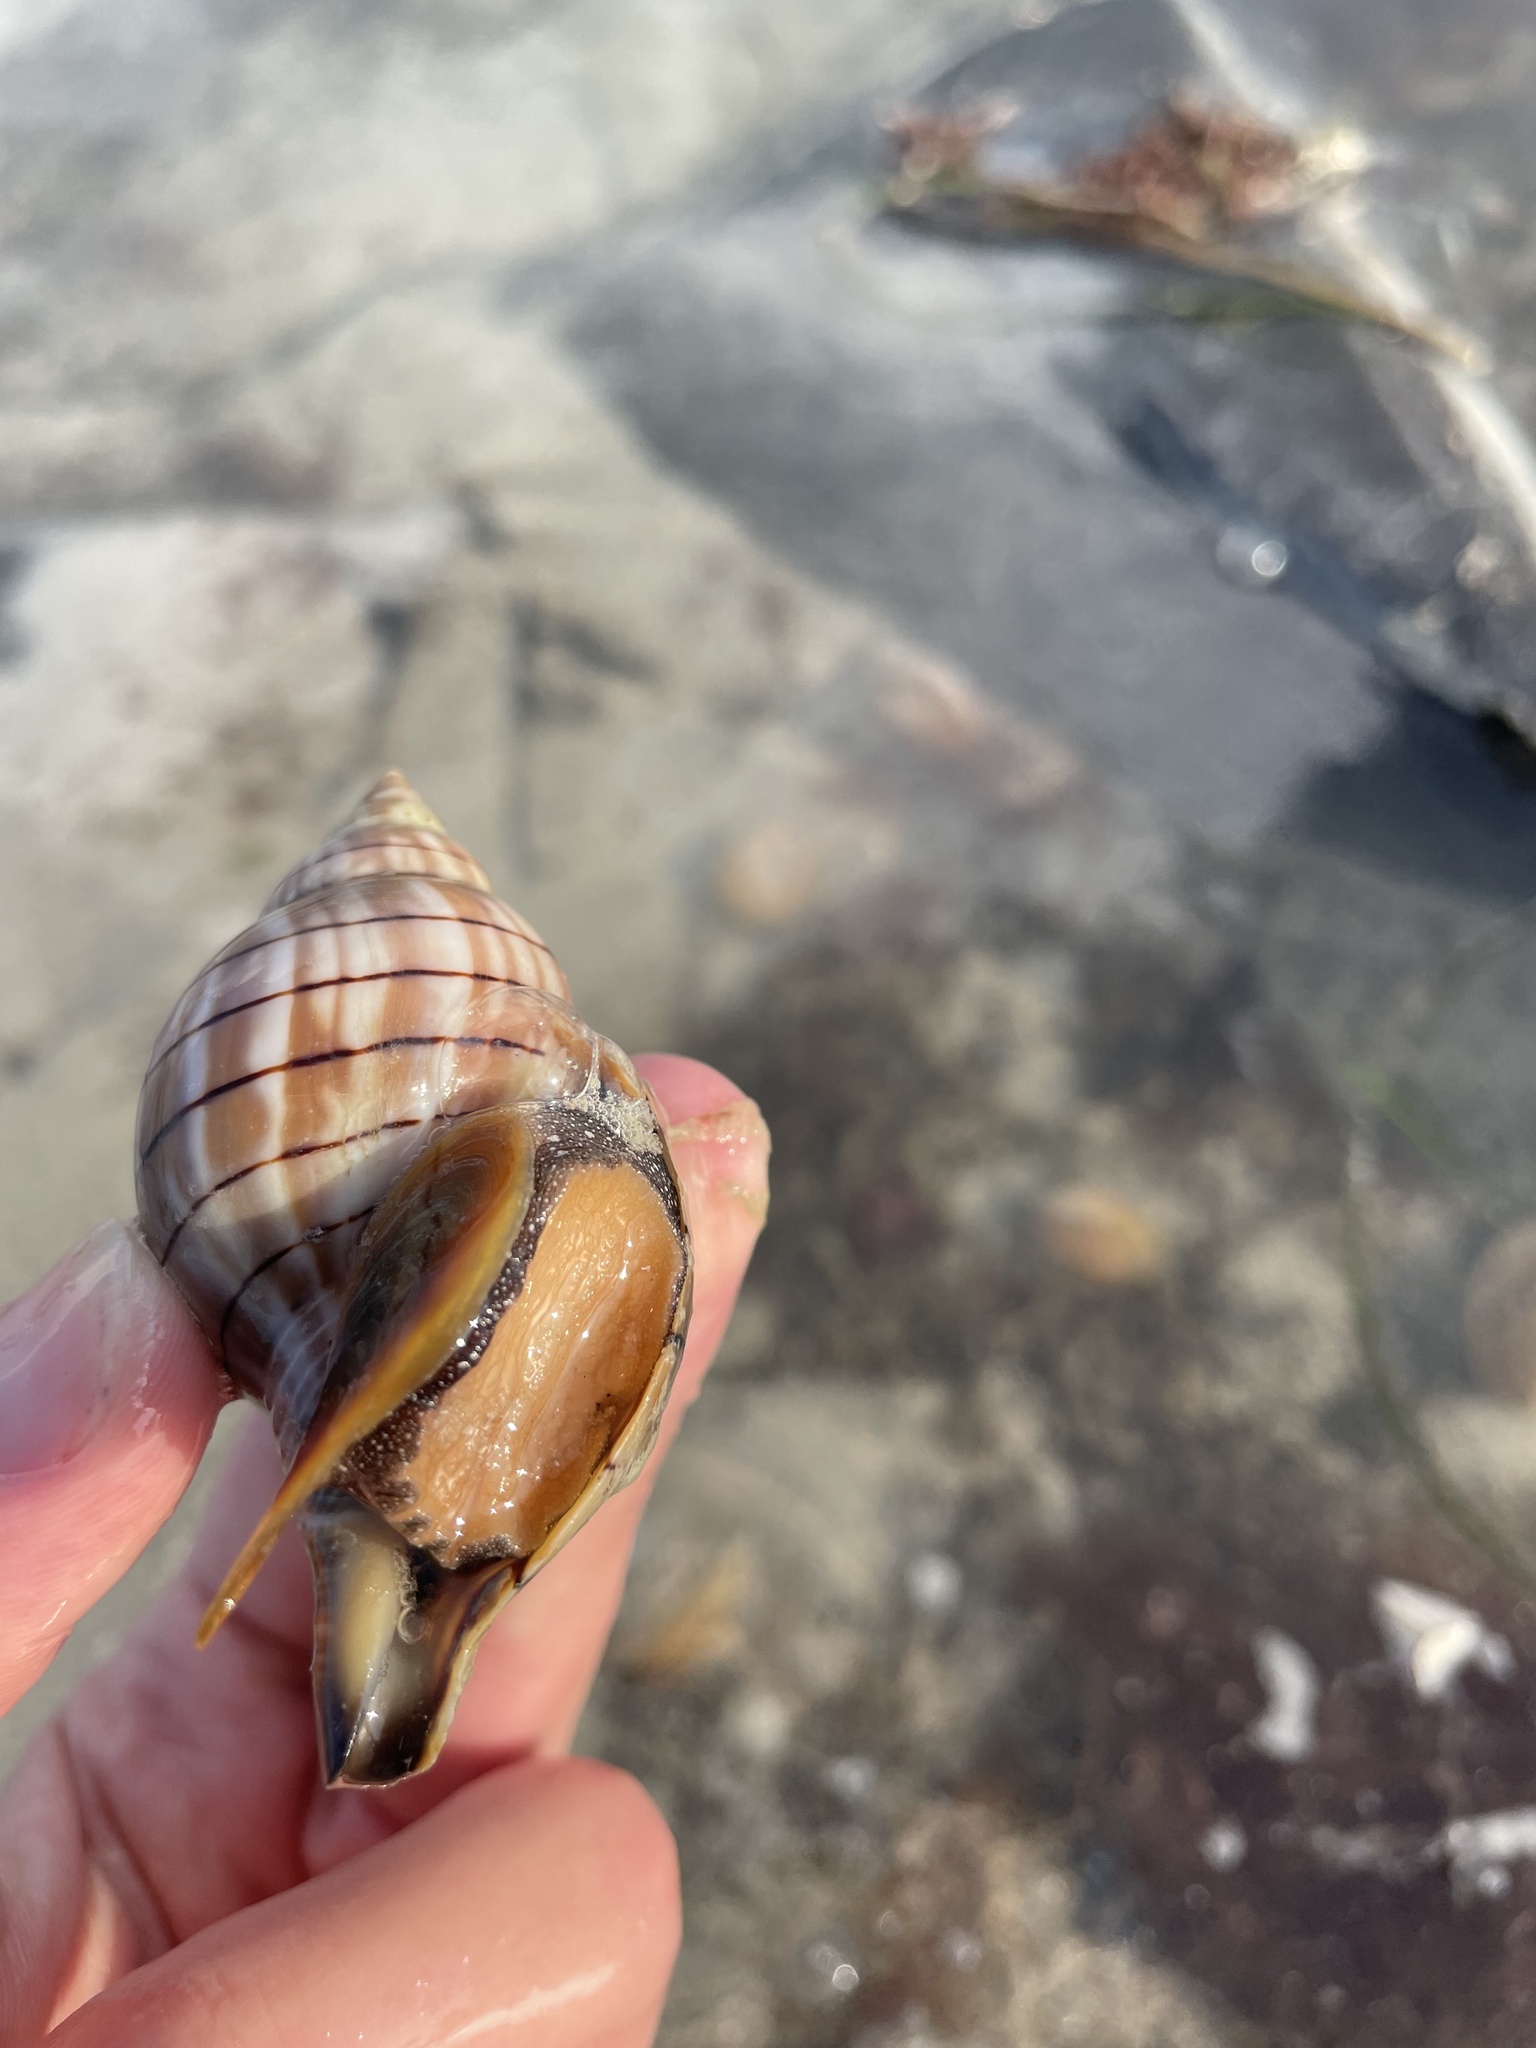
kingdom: Animalia
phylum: Mollusca
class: Gastropoda
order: Neogastropoda
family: Fasciolariidae
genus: Cinctura
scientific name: Cinctura hunteria
